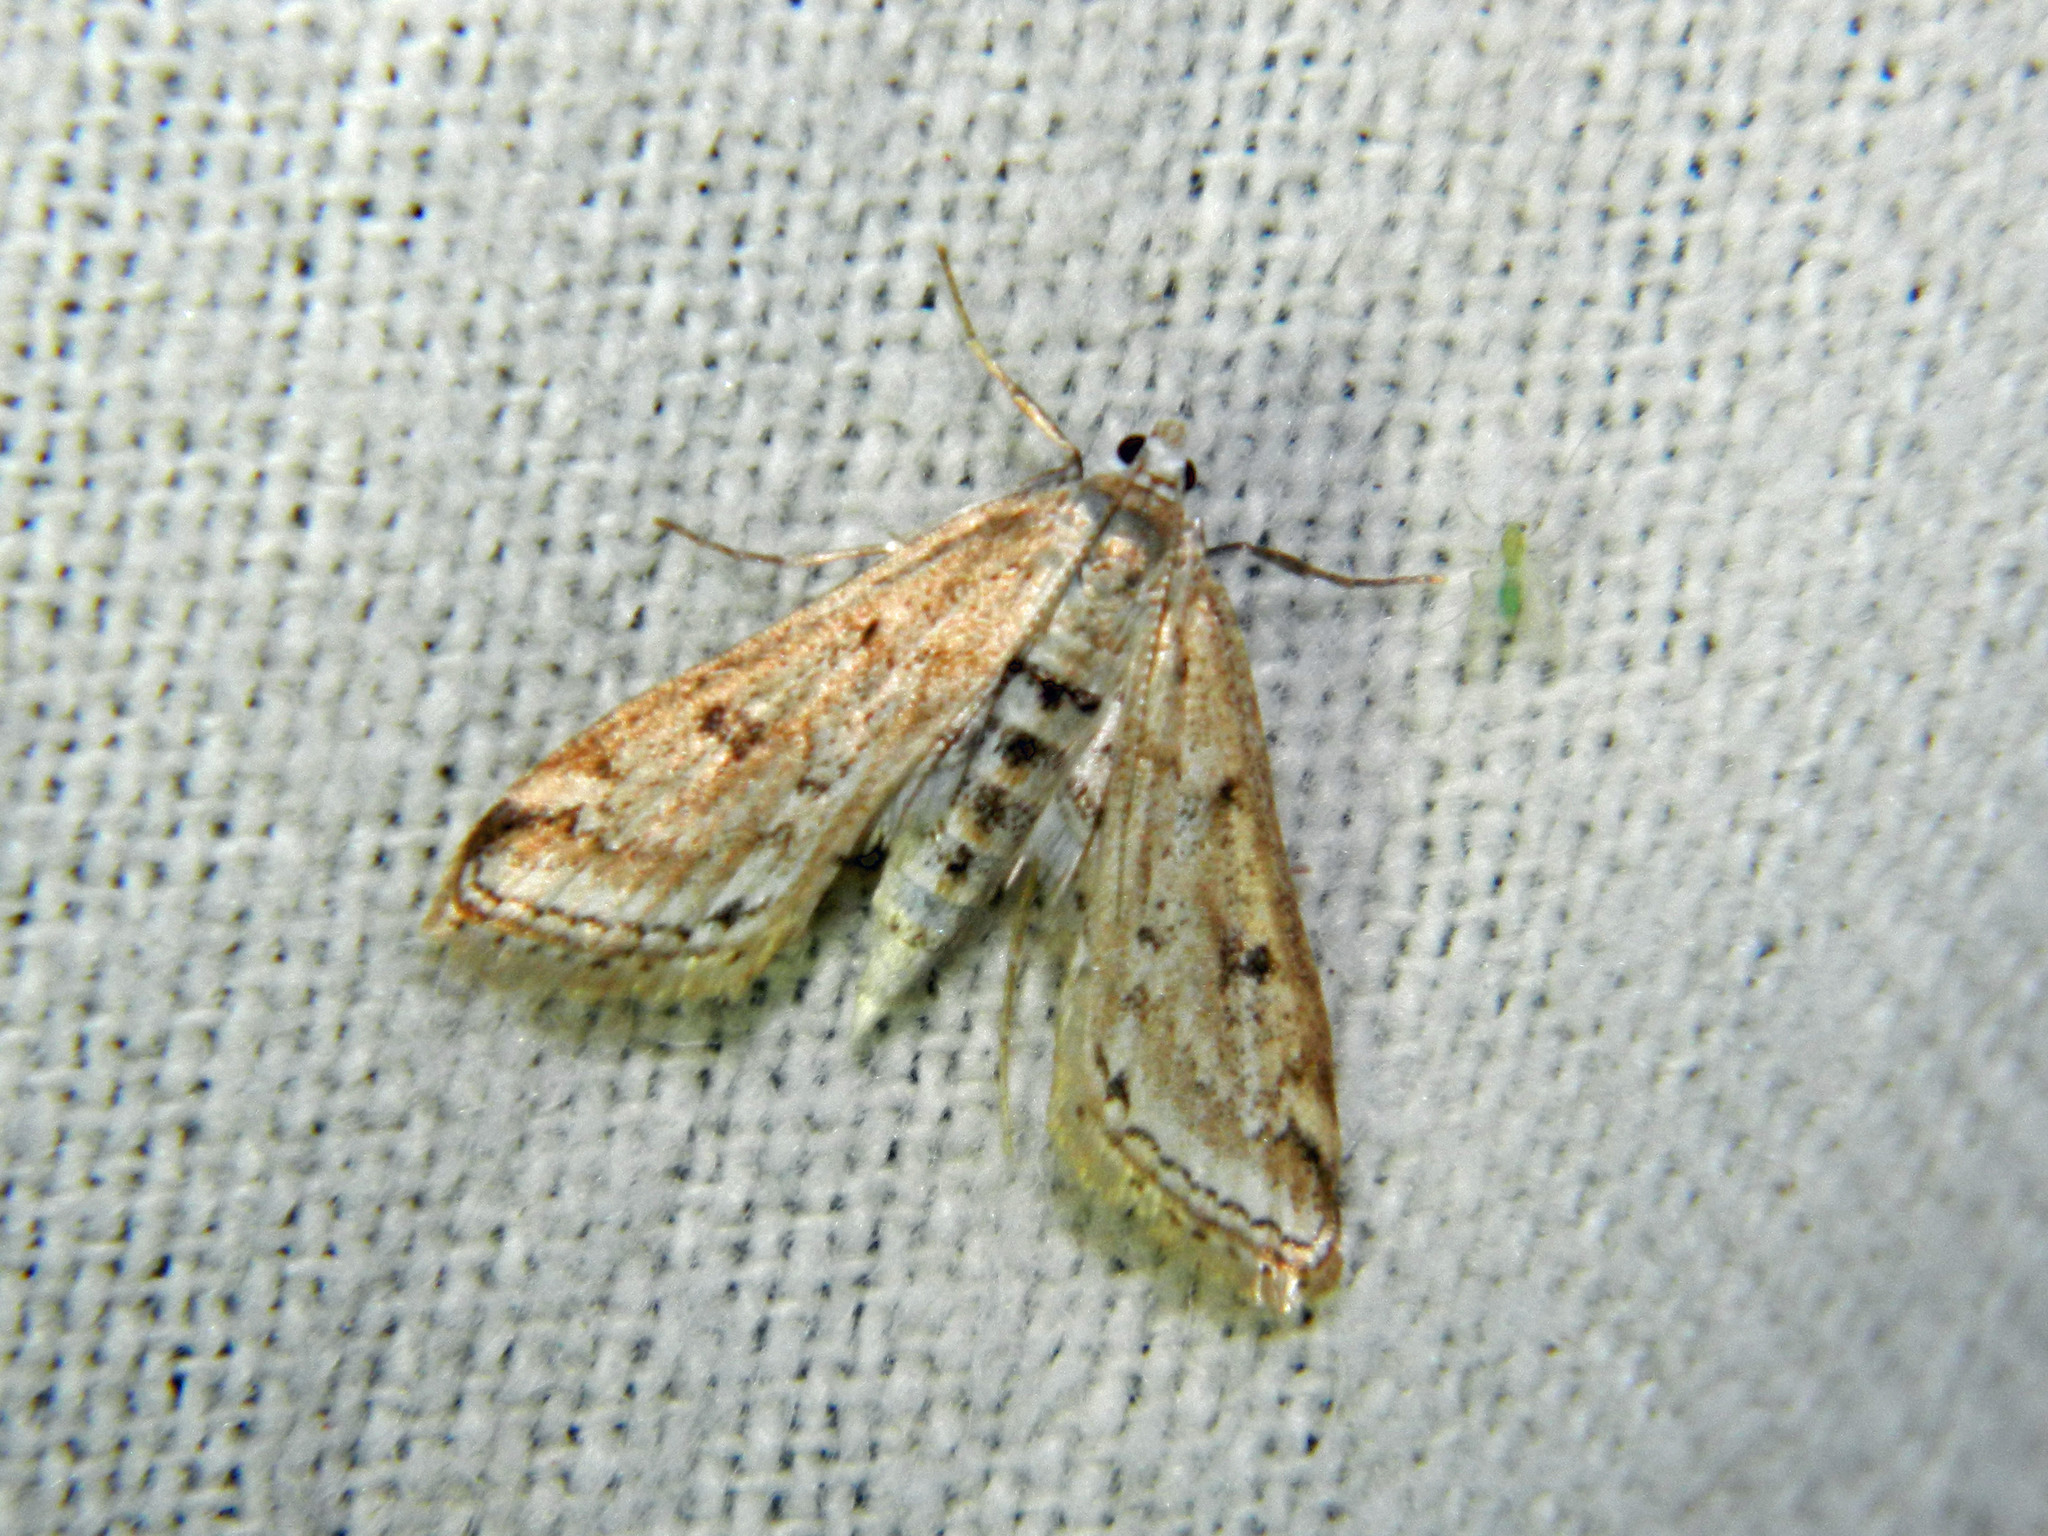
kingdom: Animalia
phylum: Arthropoda
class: Insecta
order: Lepidoptera
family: Crambidae
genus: Parapoynx
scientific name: Parapoynx allionealis
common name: Bladderwort casemaker
